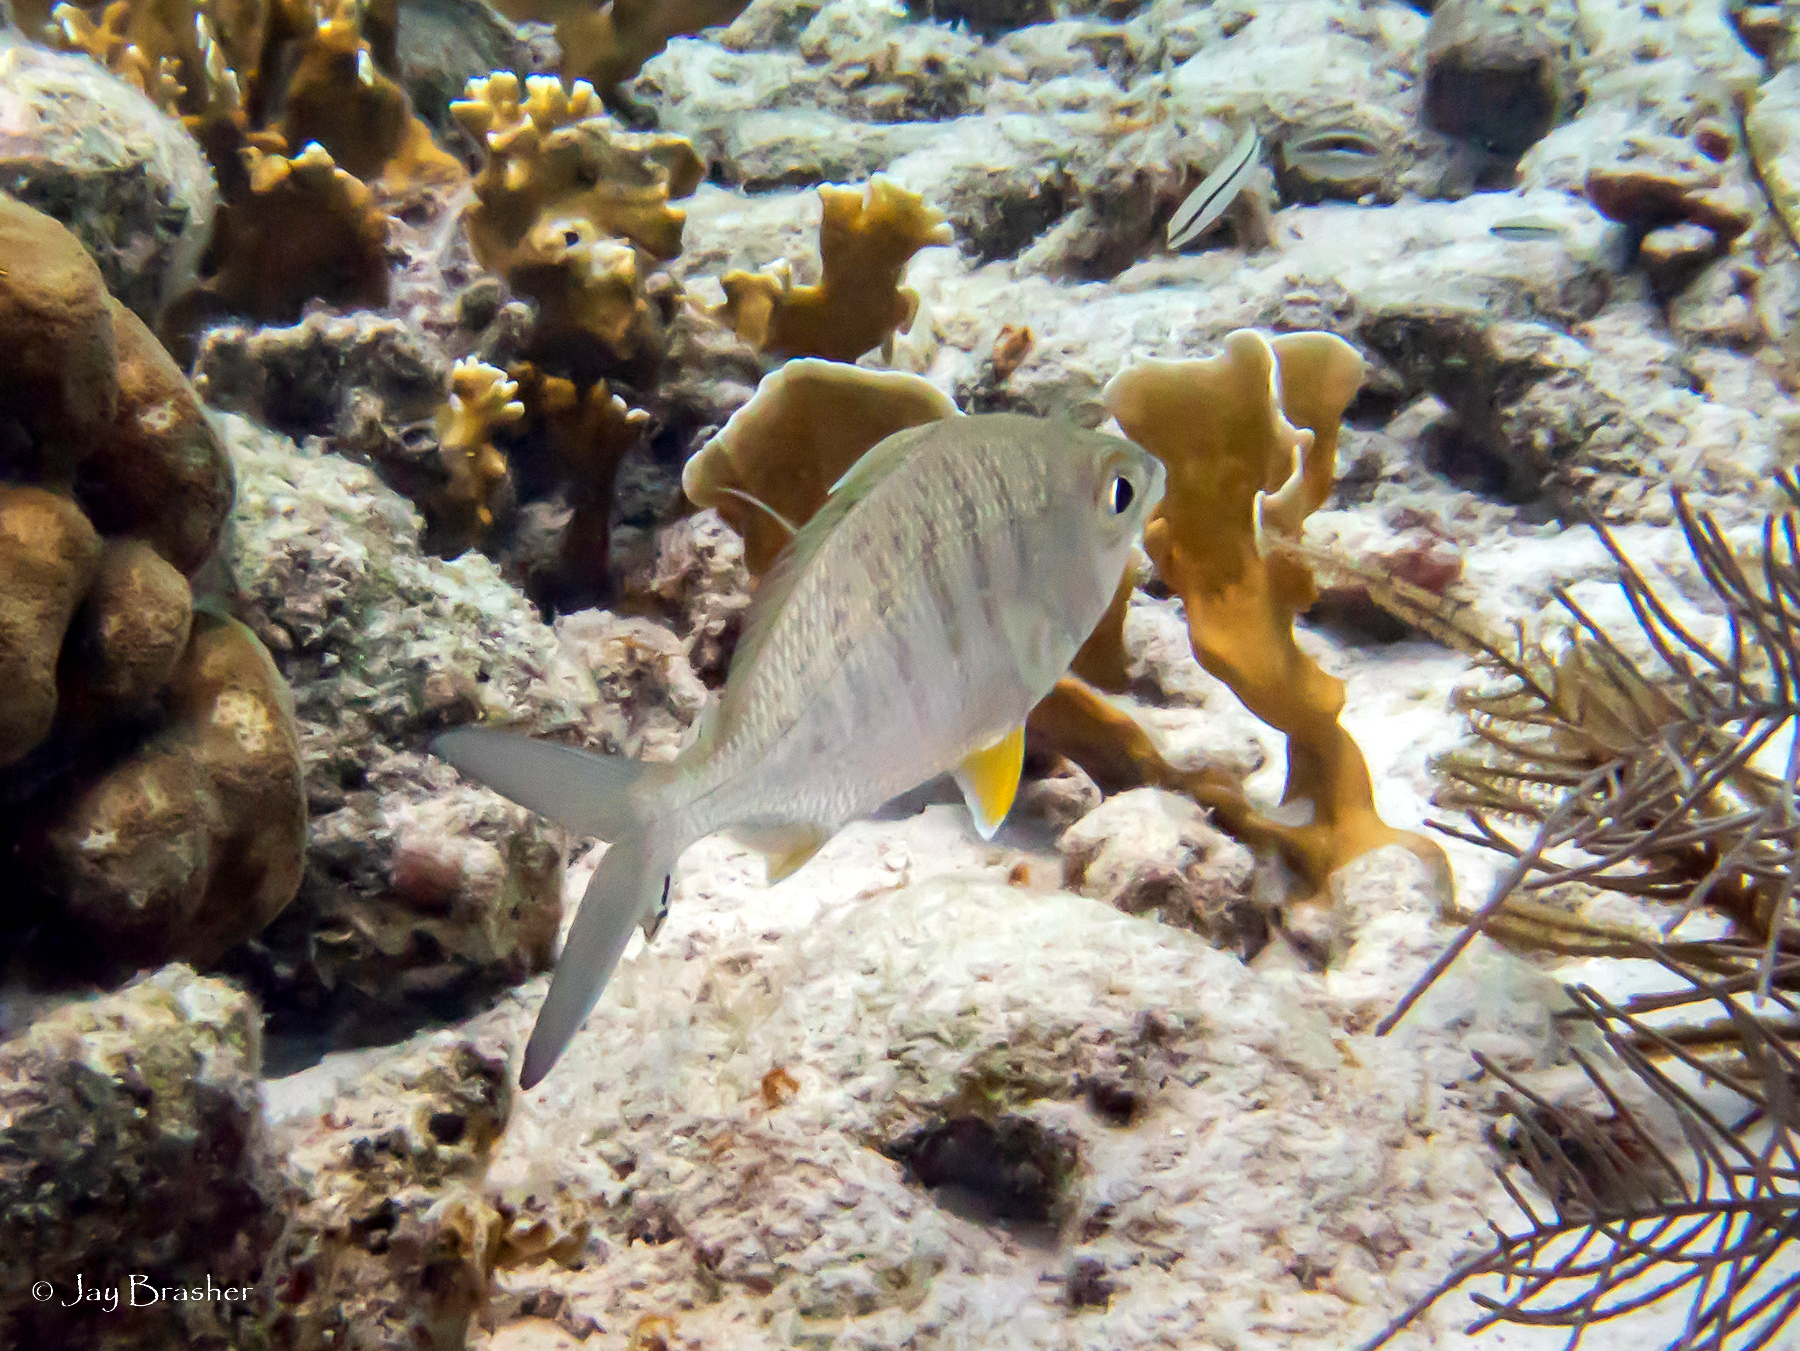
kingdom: Animalia
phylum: Chordata
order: Perciformes
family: Gerreidae
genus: Gerres
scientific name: Gerres cinereus
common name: Hedow
